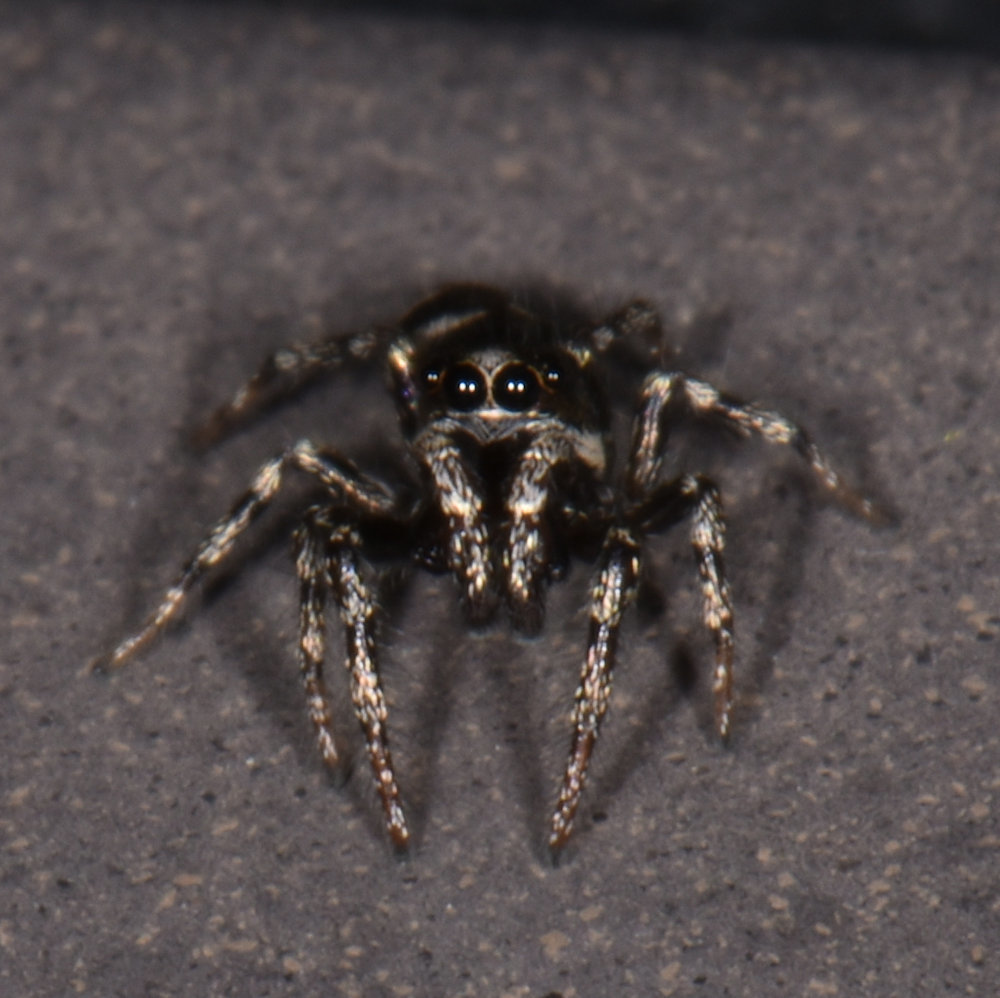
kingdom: Animalia
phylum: Arthropoda
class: Arachnida
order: Araneae
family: Salticidae
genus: Salticus
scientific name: Salticus scenicus
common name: Zebra jumper
